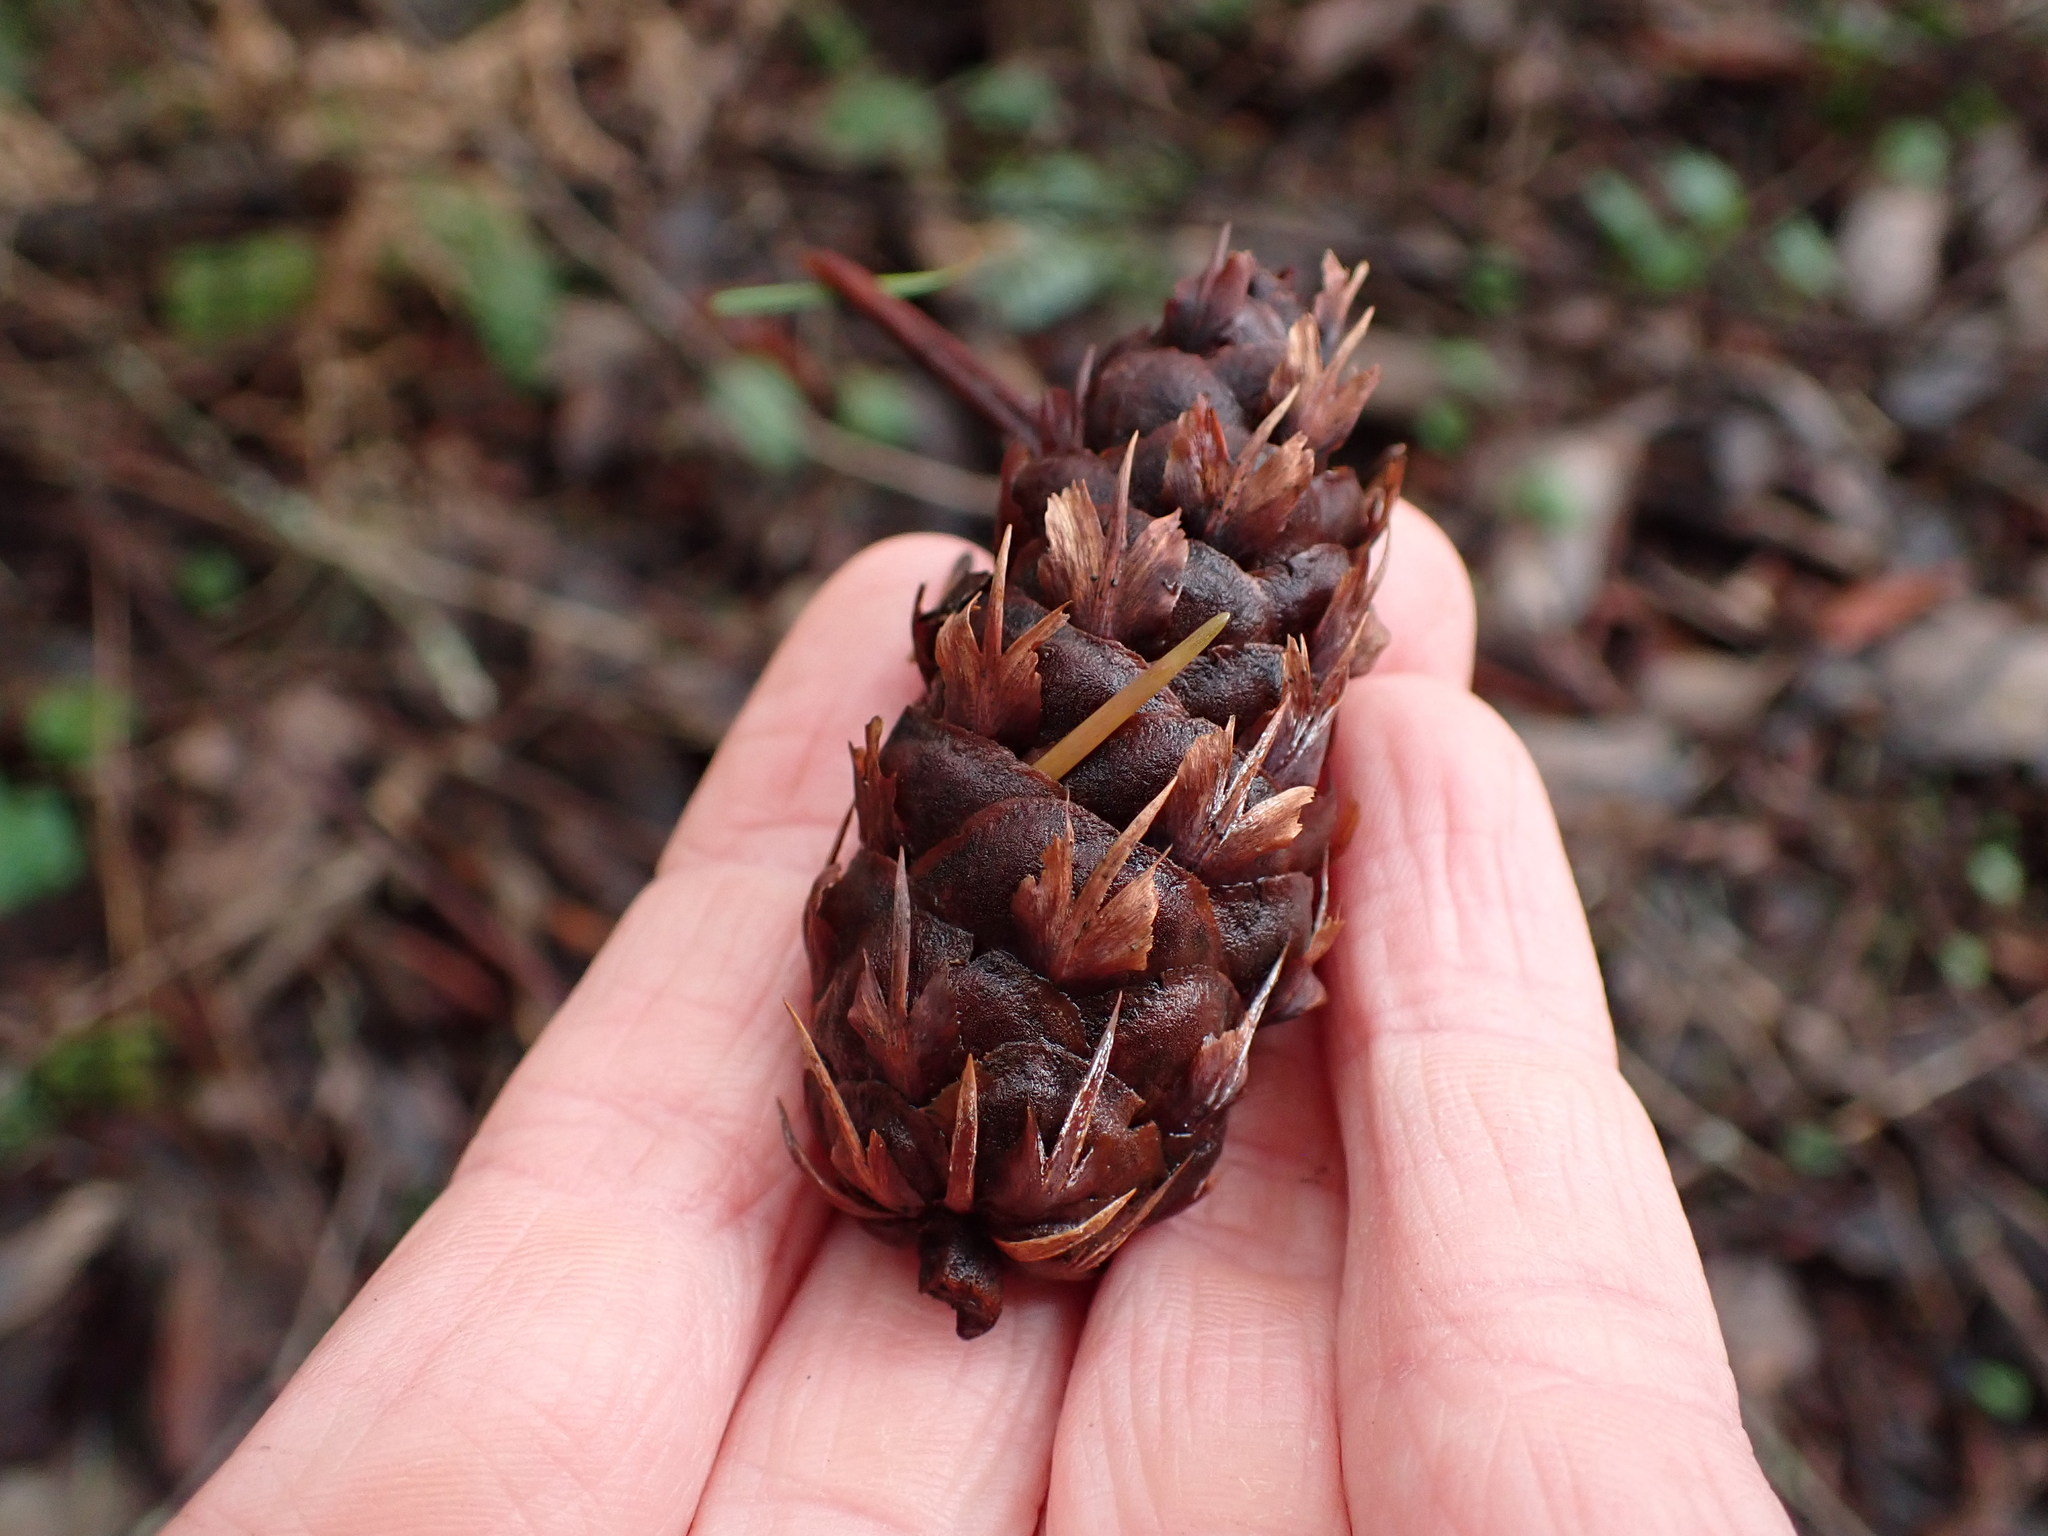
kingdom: Plantae
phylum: Tracheophyta
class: Pinopsida
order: Pinales
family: Pinaceae
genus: Pseudotsuga
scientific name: Pseudotsuga menziesii
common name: Douglas fir
